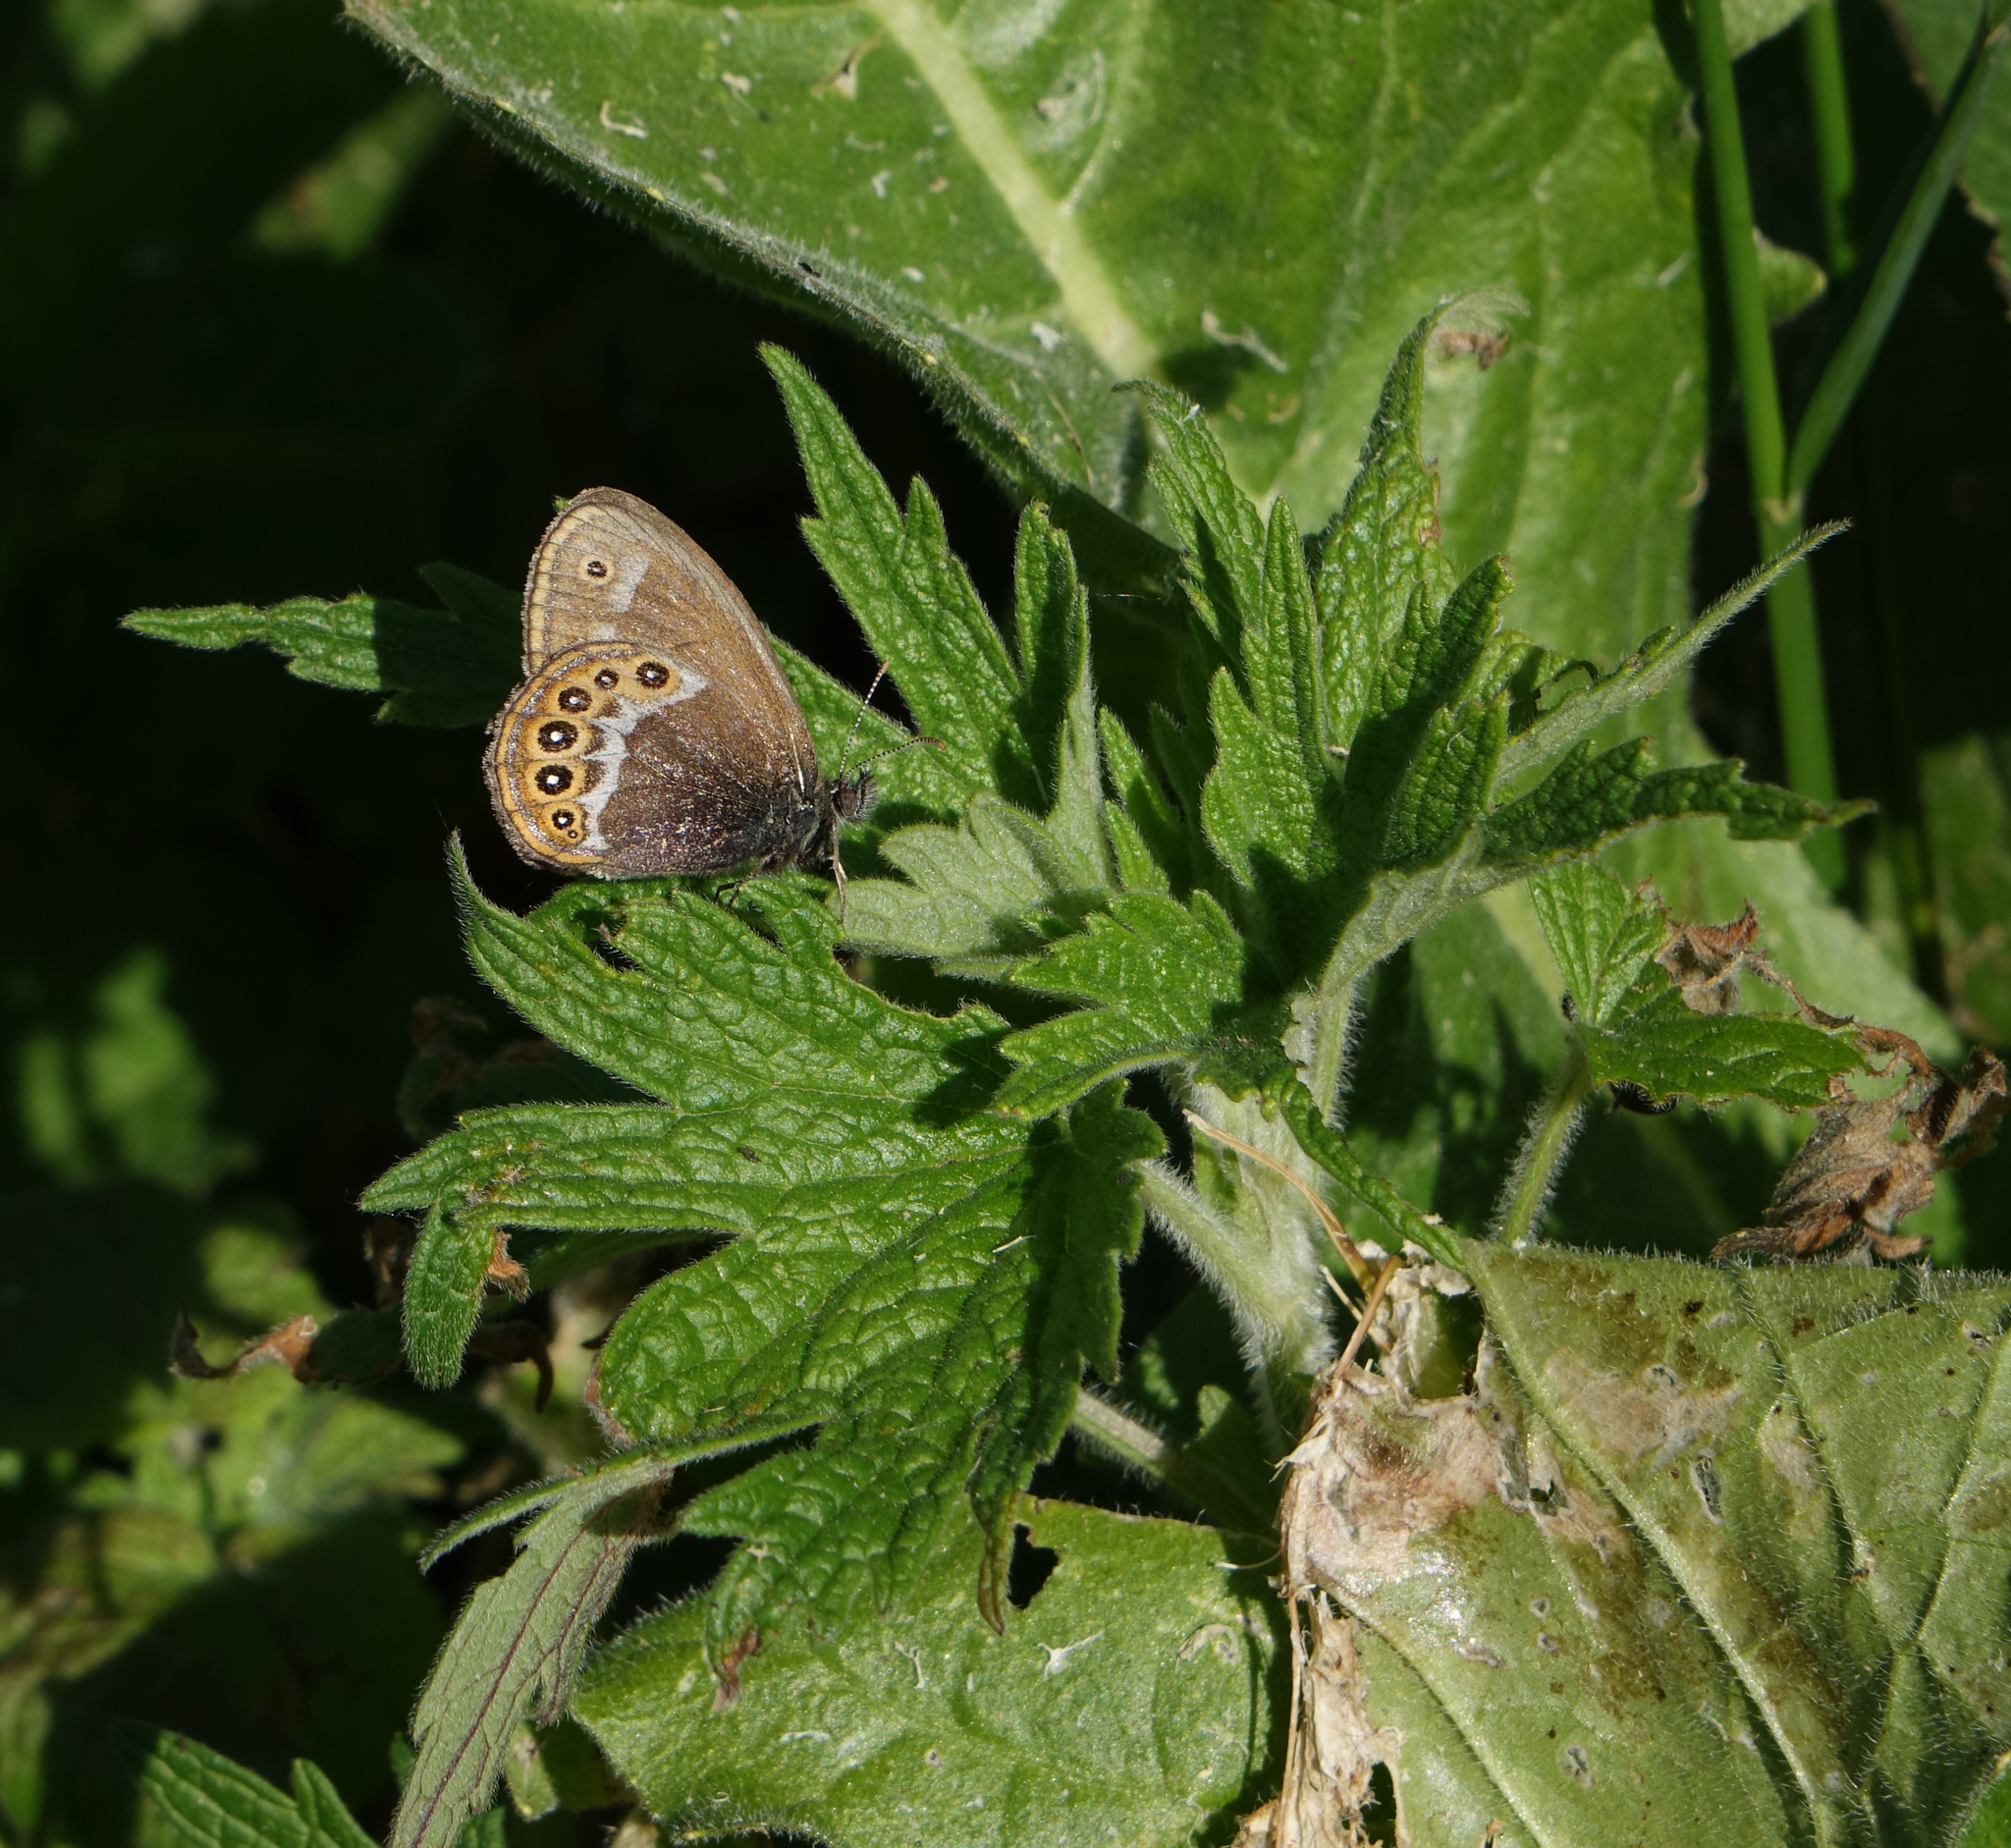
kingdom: Animalia
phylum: Arthropoda
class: Insecta
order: Lepidoptera
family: Nymphalidae
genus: Coenonympha
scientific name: Coenonympha hero
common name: Scarce heath
